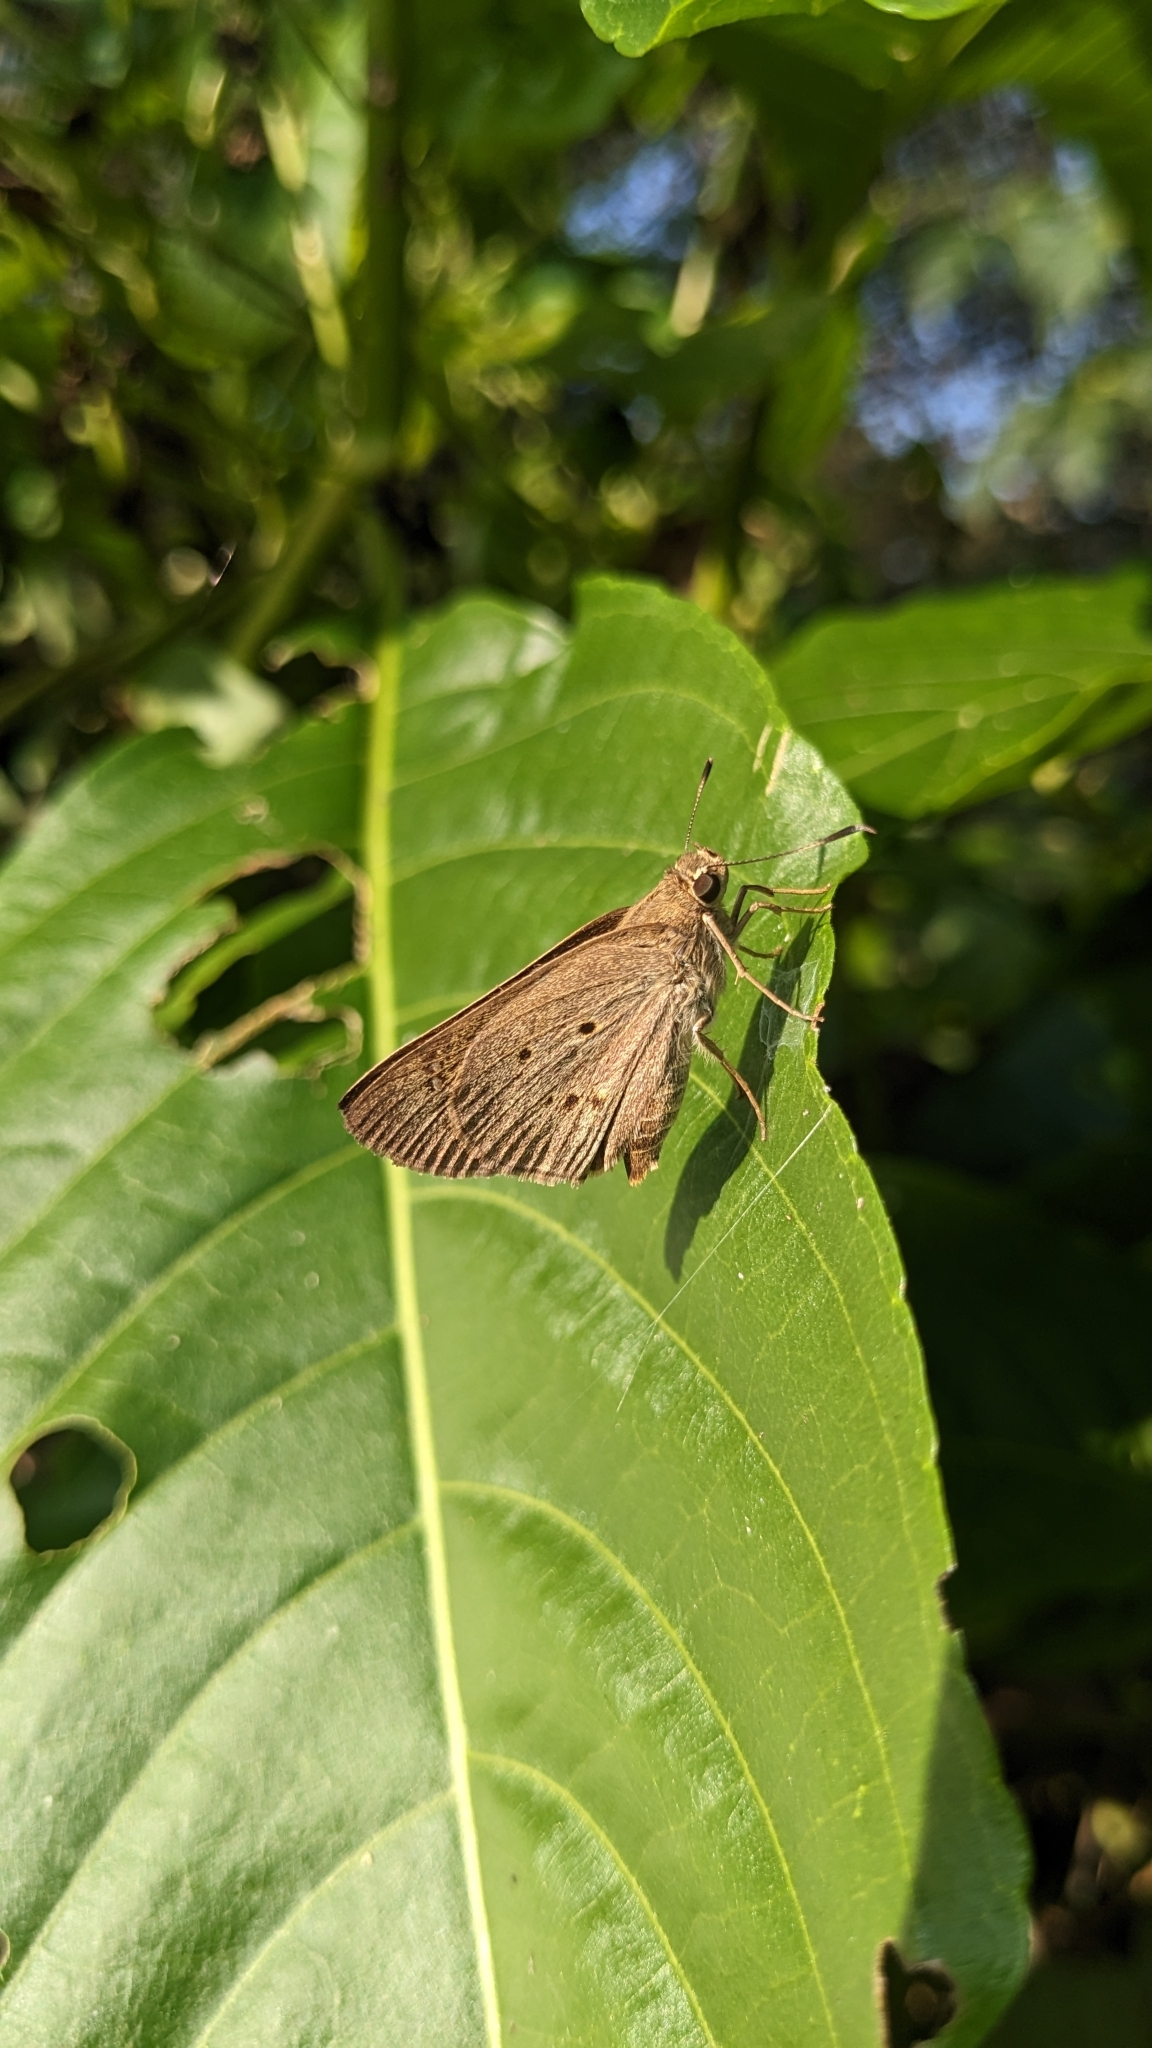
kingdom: Animalia
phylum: Arthropoda
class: Insecta
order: Lepidoptera
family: Hesperiidae
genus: Suastus
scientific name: Suastus gremius
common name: Indian palm bob
